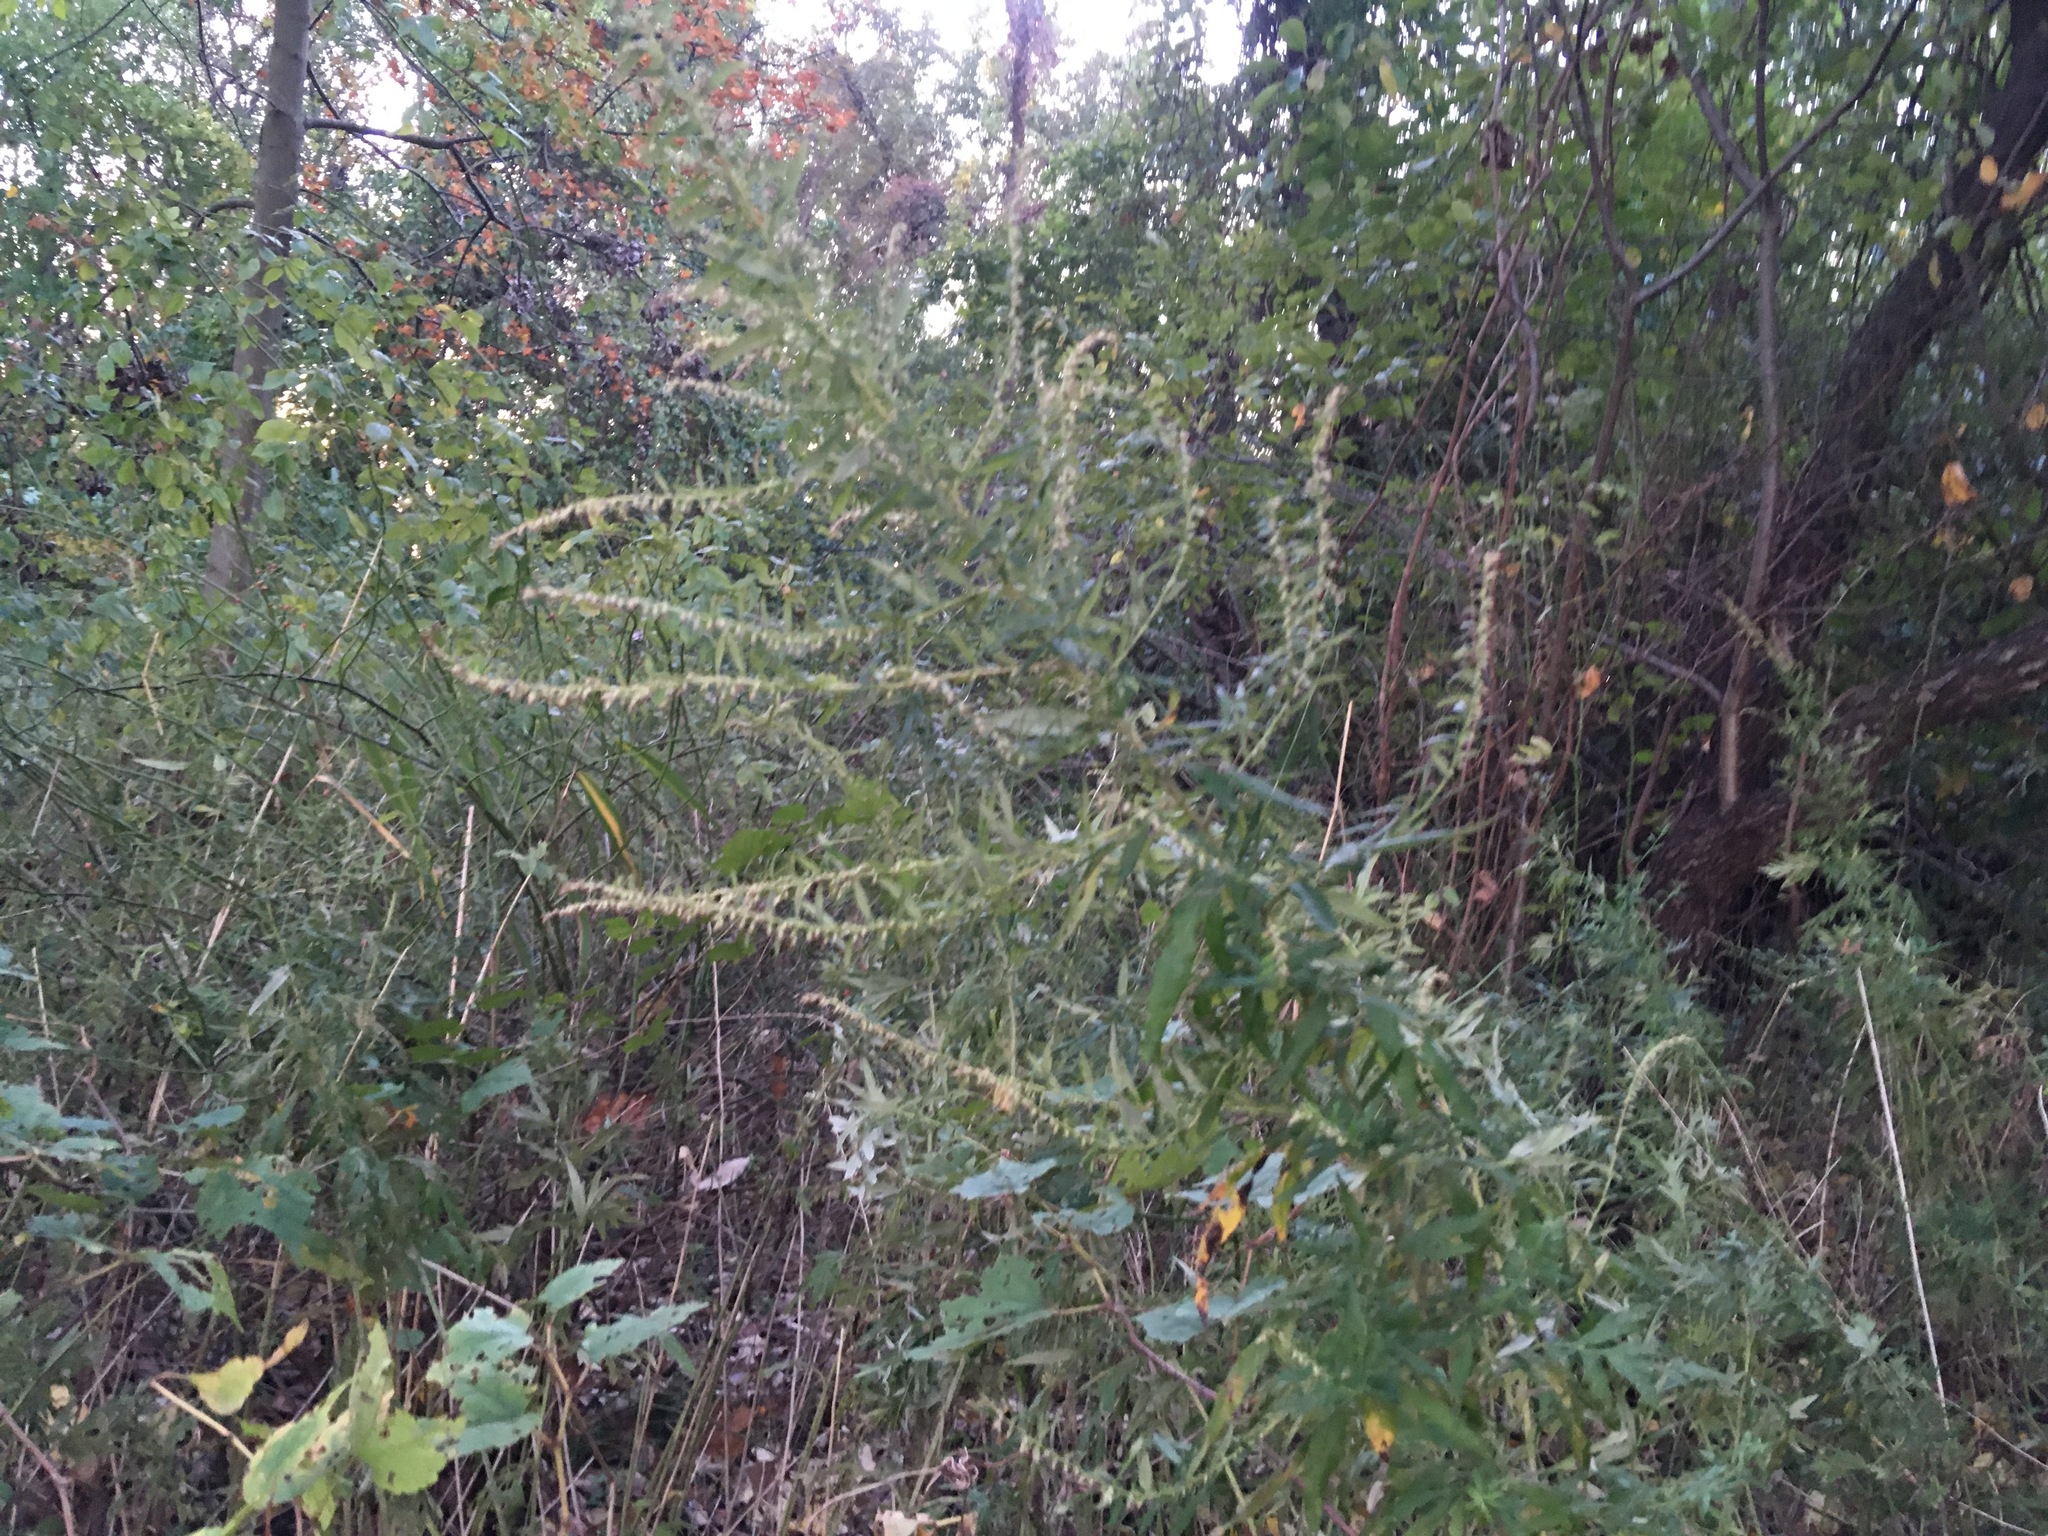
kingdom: Plantae
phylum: Tracheophyta
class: Magnoliopsida
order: Asterales
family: Asteraceae
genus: Artemisia
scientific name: Artemisia vulgaris
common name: Mugwort
